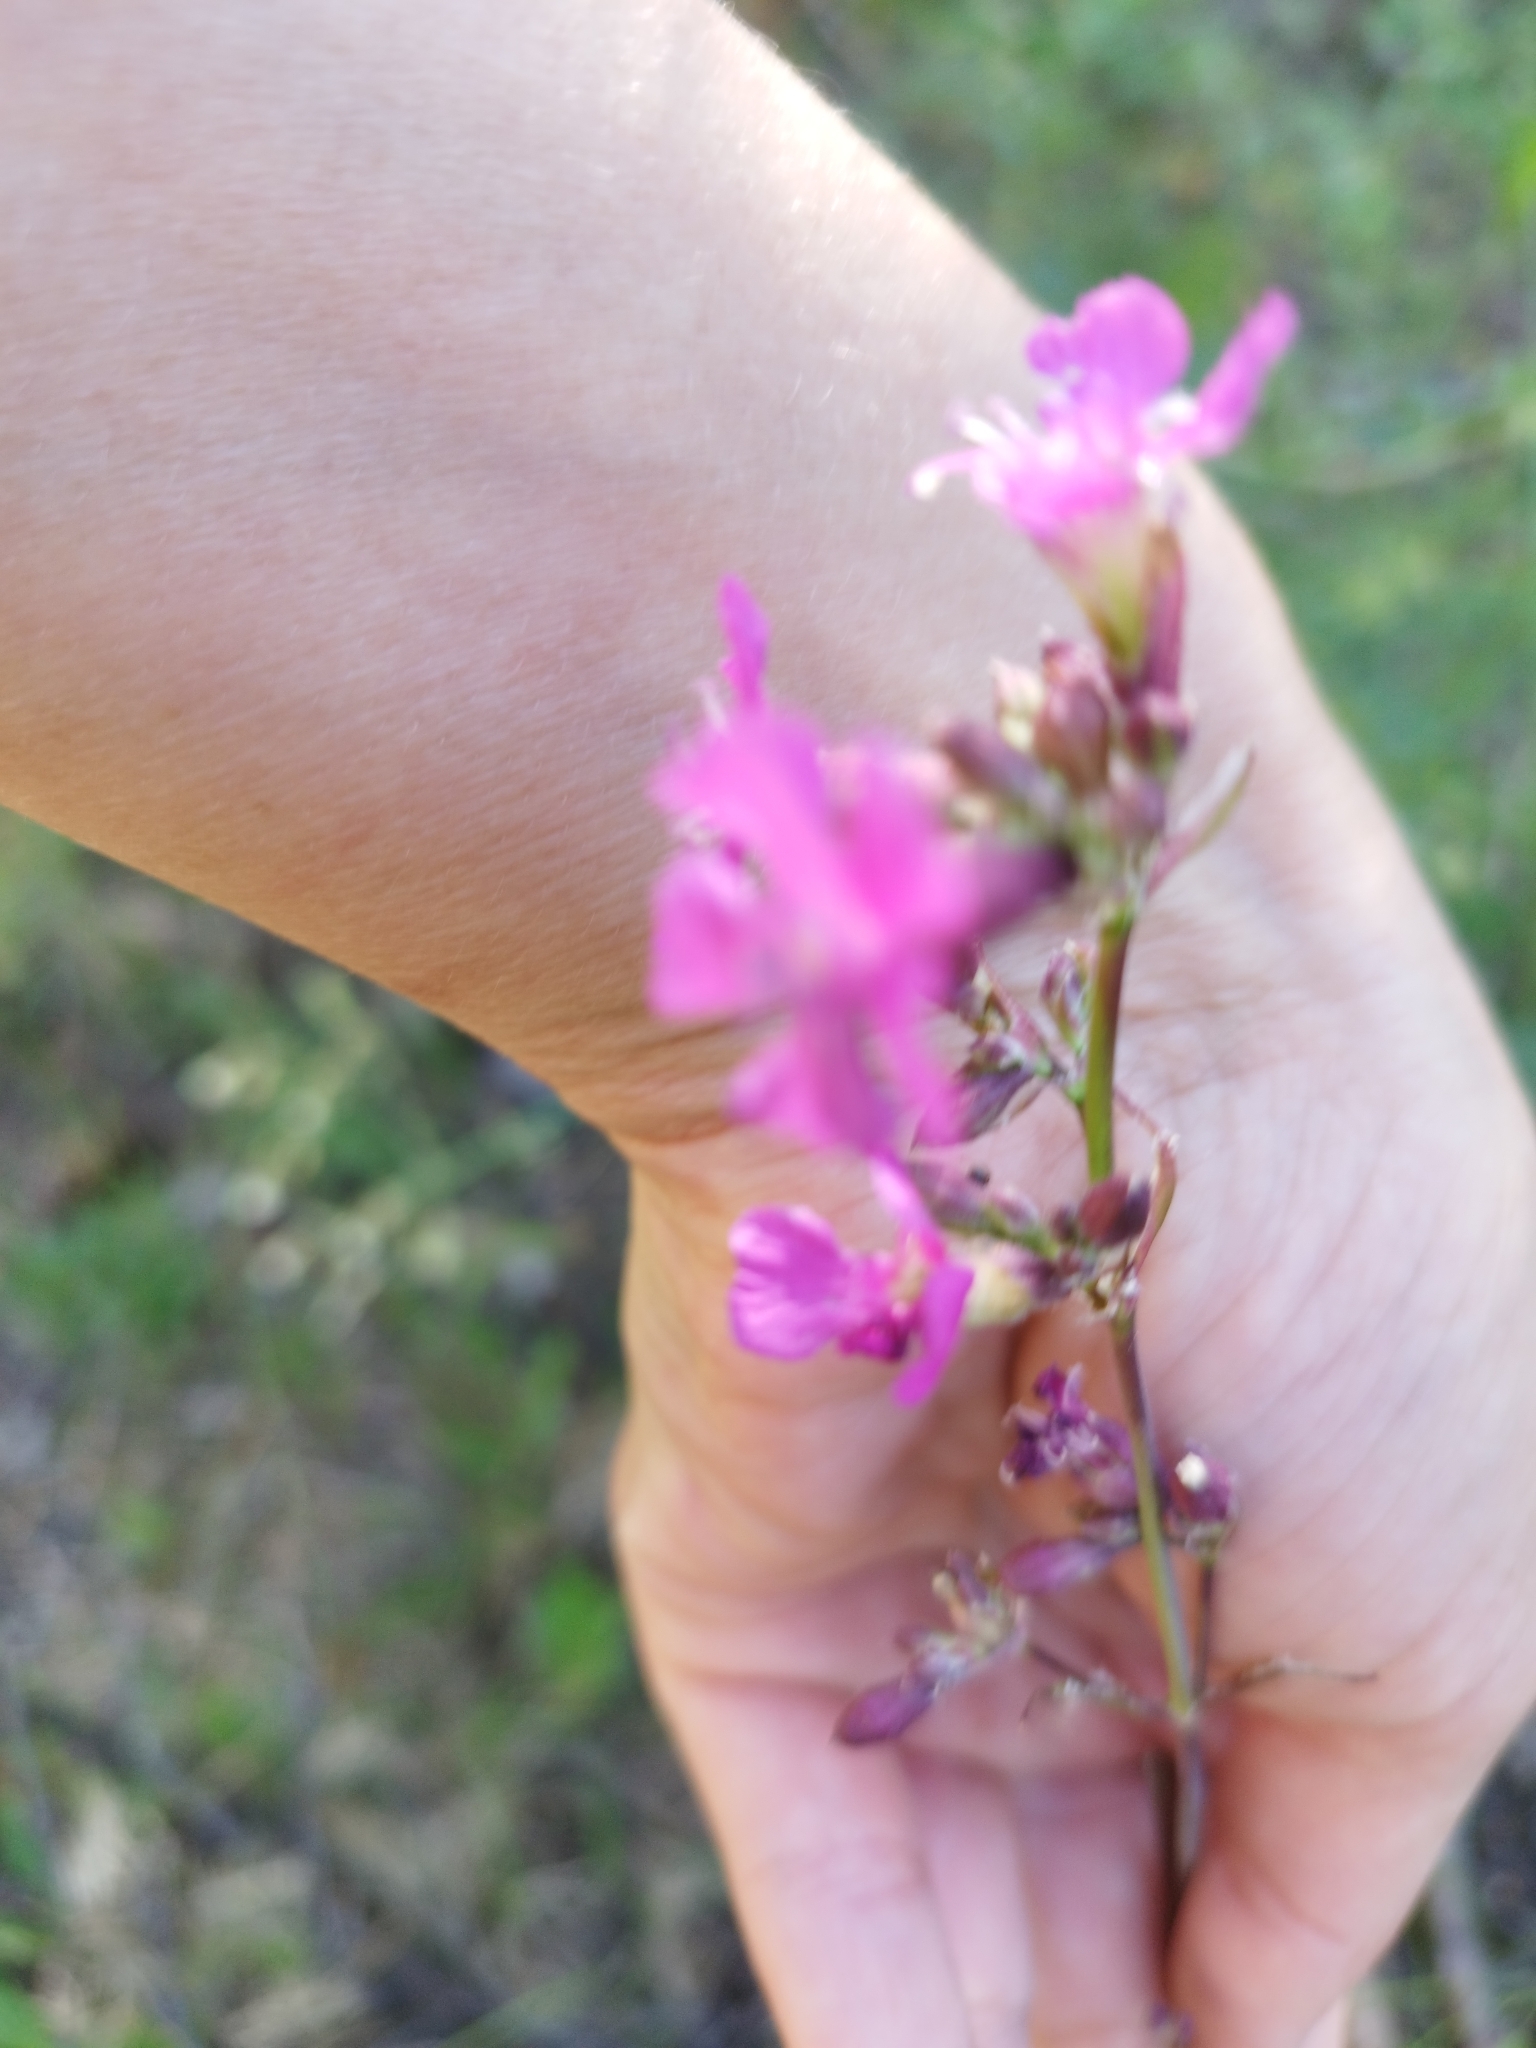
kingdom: Plantae
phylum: Tracheophyta
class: Magnoliopsida
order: Caryophyllales
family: Caryophyllaceae
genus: Viscaria
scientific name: Viscaria vulgaris
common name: Clammy campion
